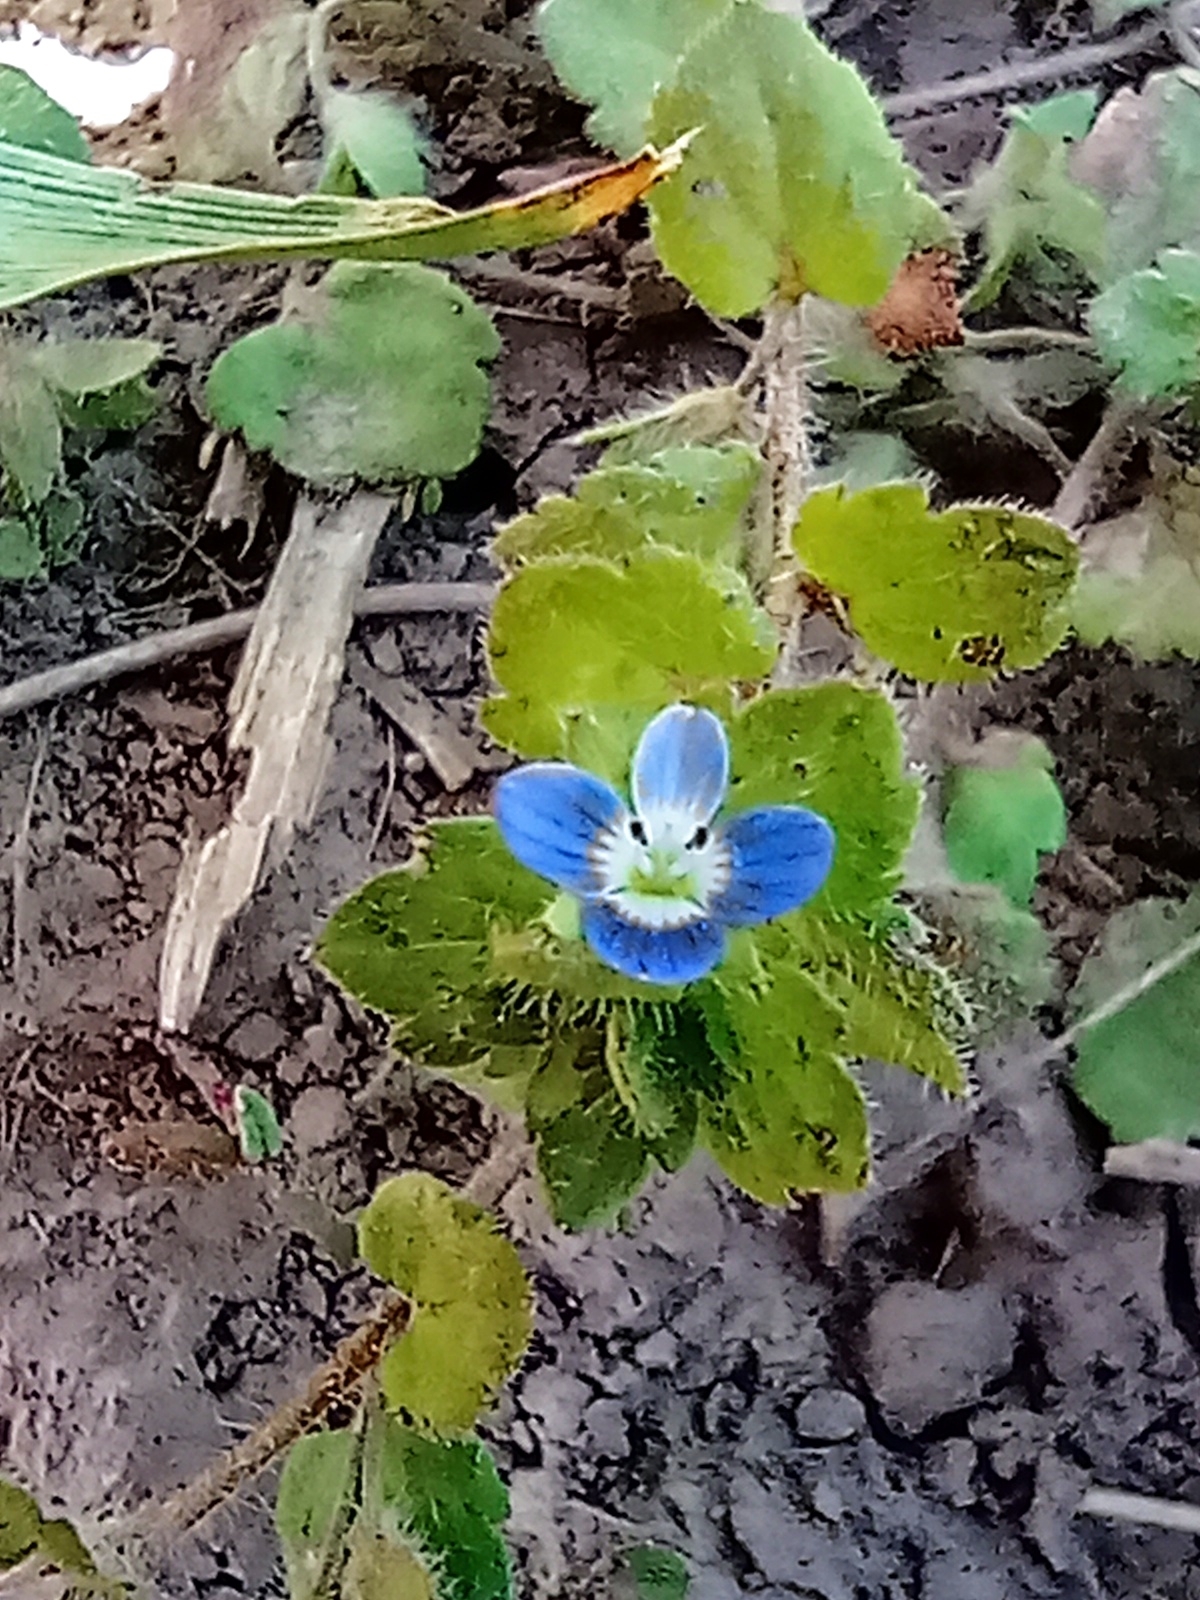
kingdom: Plantae
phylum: Tracheophyta
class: Magnoliopsida
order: Lamiales
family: Plantaginaceae
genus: Veronica
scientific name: Veronica polita
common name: Grey field-speedwell
